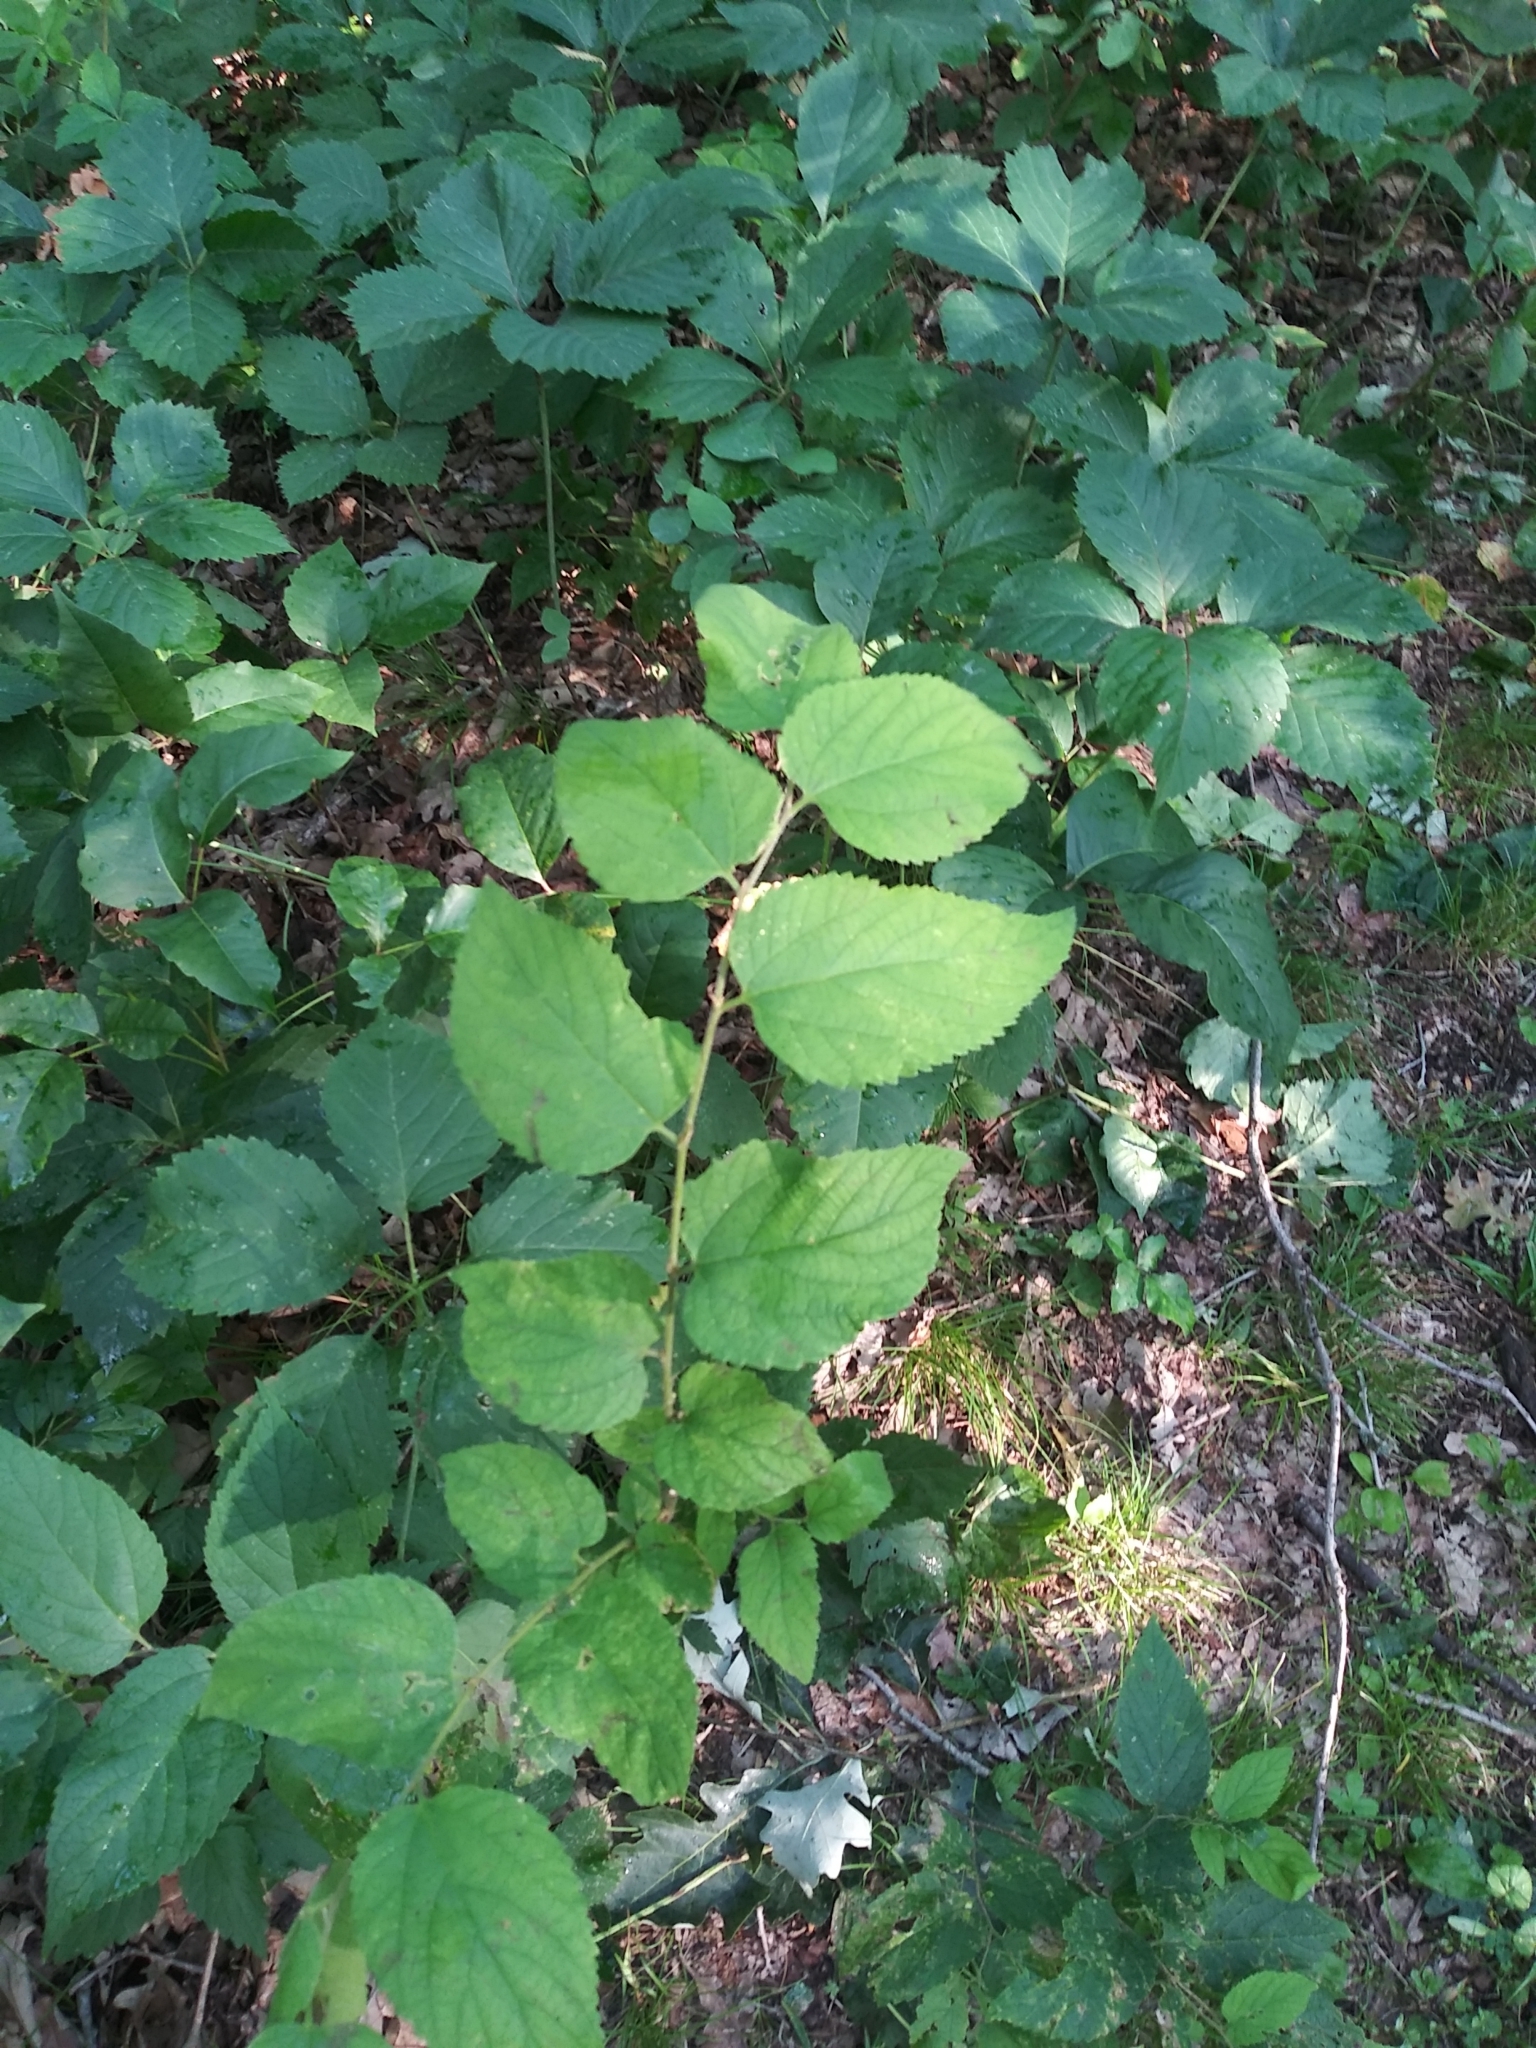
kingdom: Plantae
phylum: Tracheophyta
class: Magnoliopsida
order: Rosales
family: Cannabaceae
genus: Celtis
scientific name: Celtis occidentalis
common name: Common hackberry
